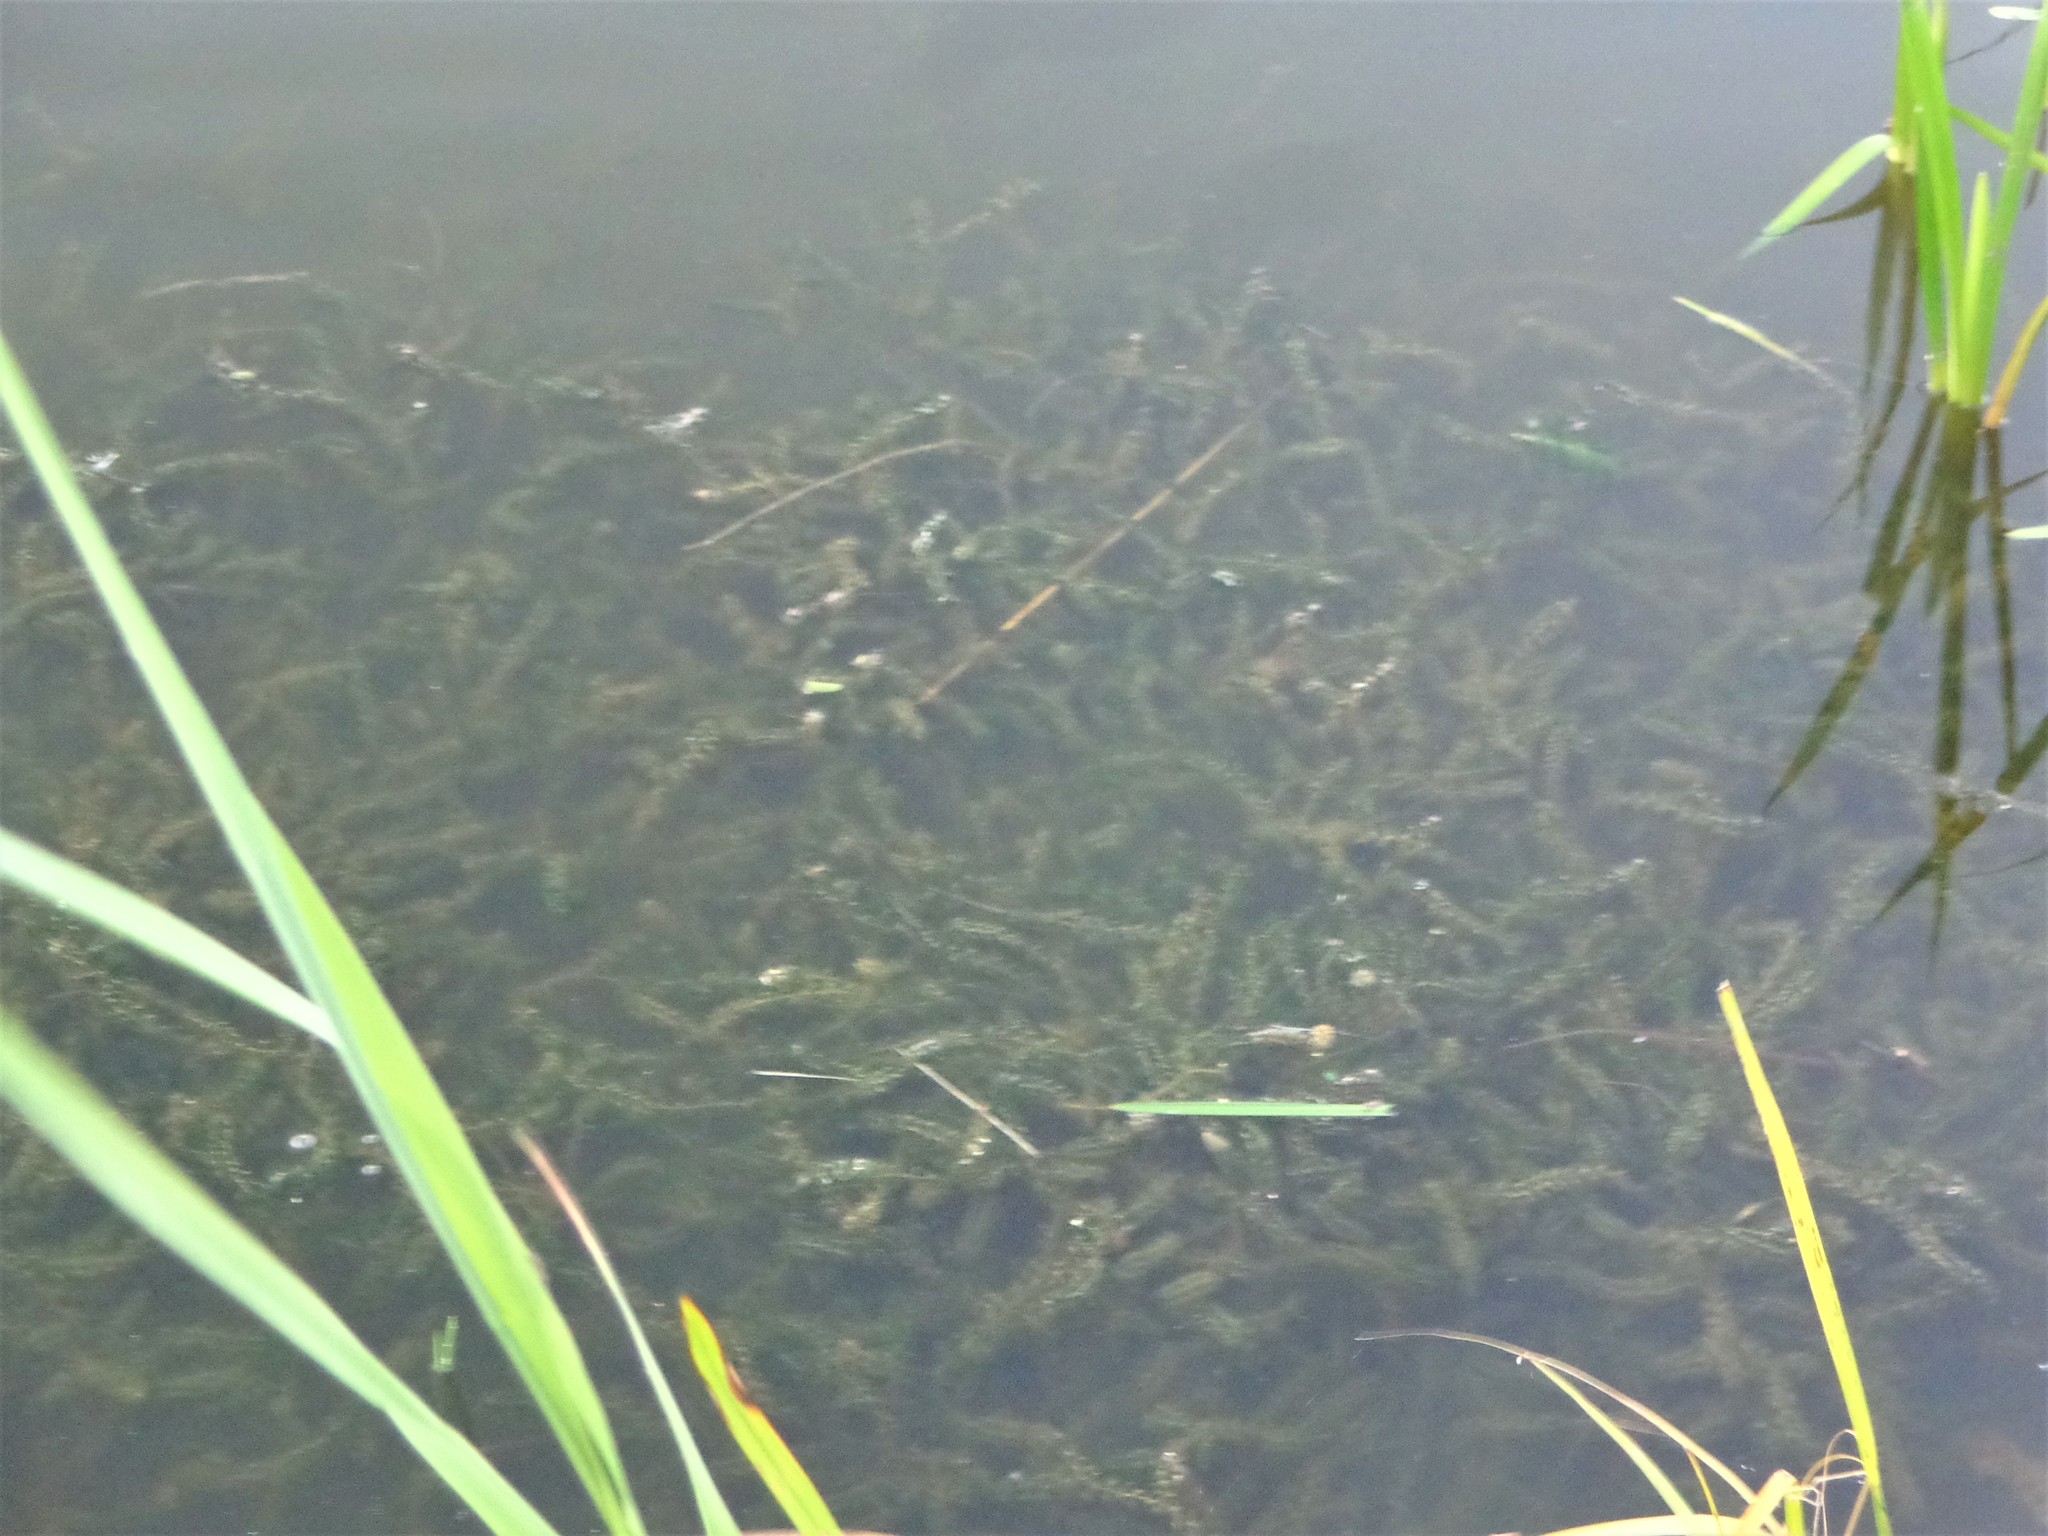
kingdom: Plantae
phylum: Tracheophyta
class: Liliopsida
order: Alismatales
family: Hydrocharitaceae
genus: Elodea
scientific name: Elodea canadensis
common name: Canadian waterweed
